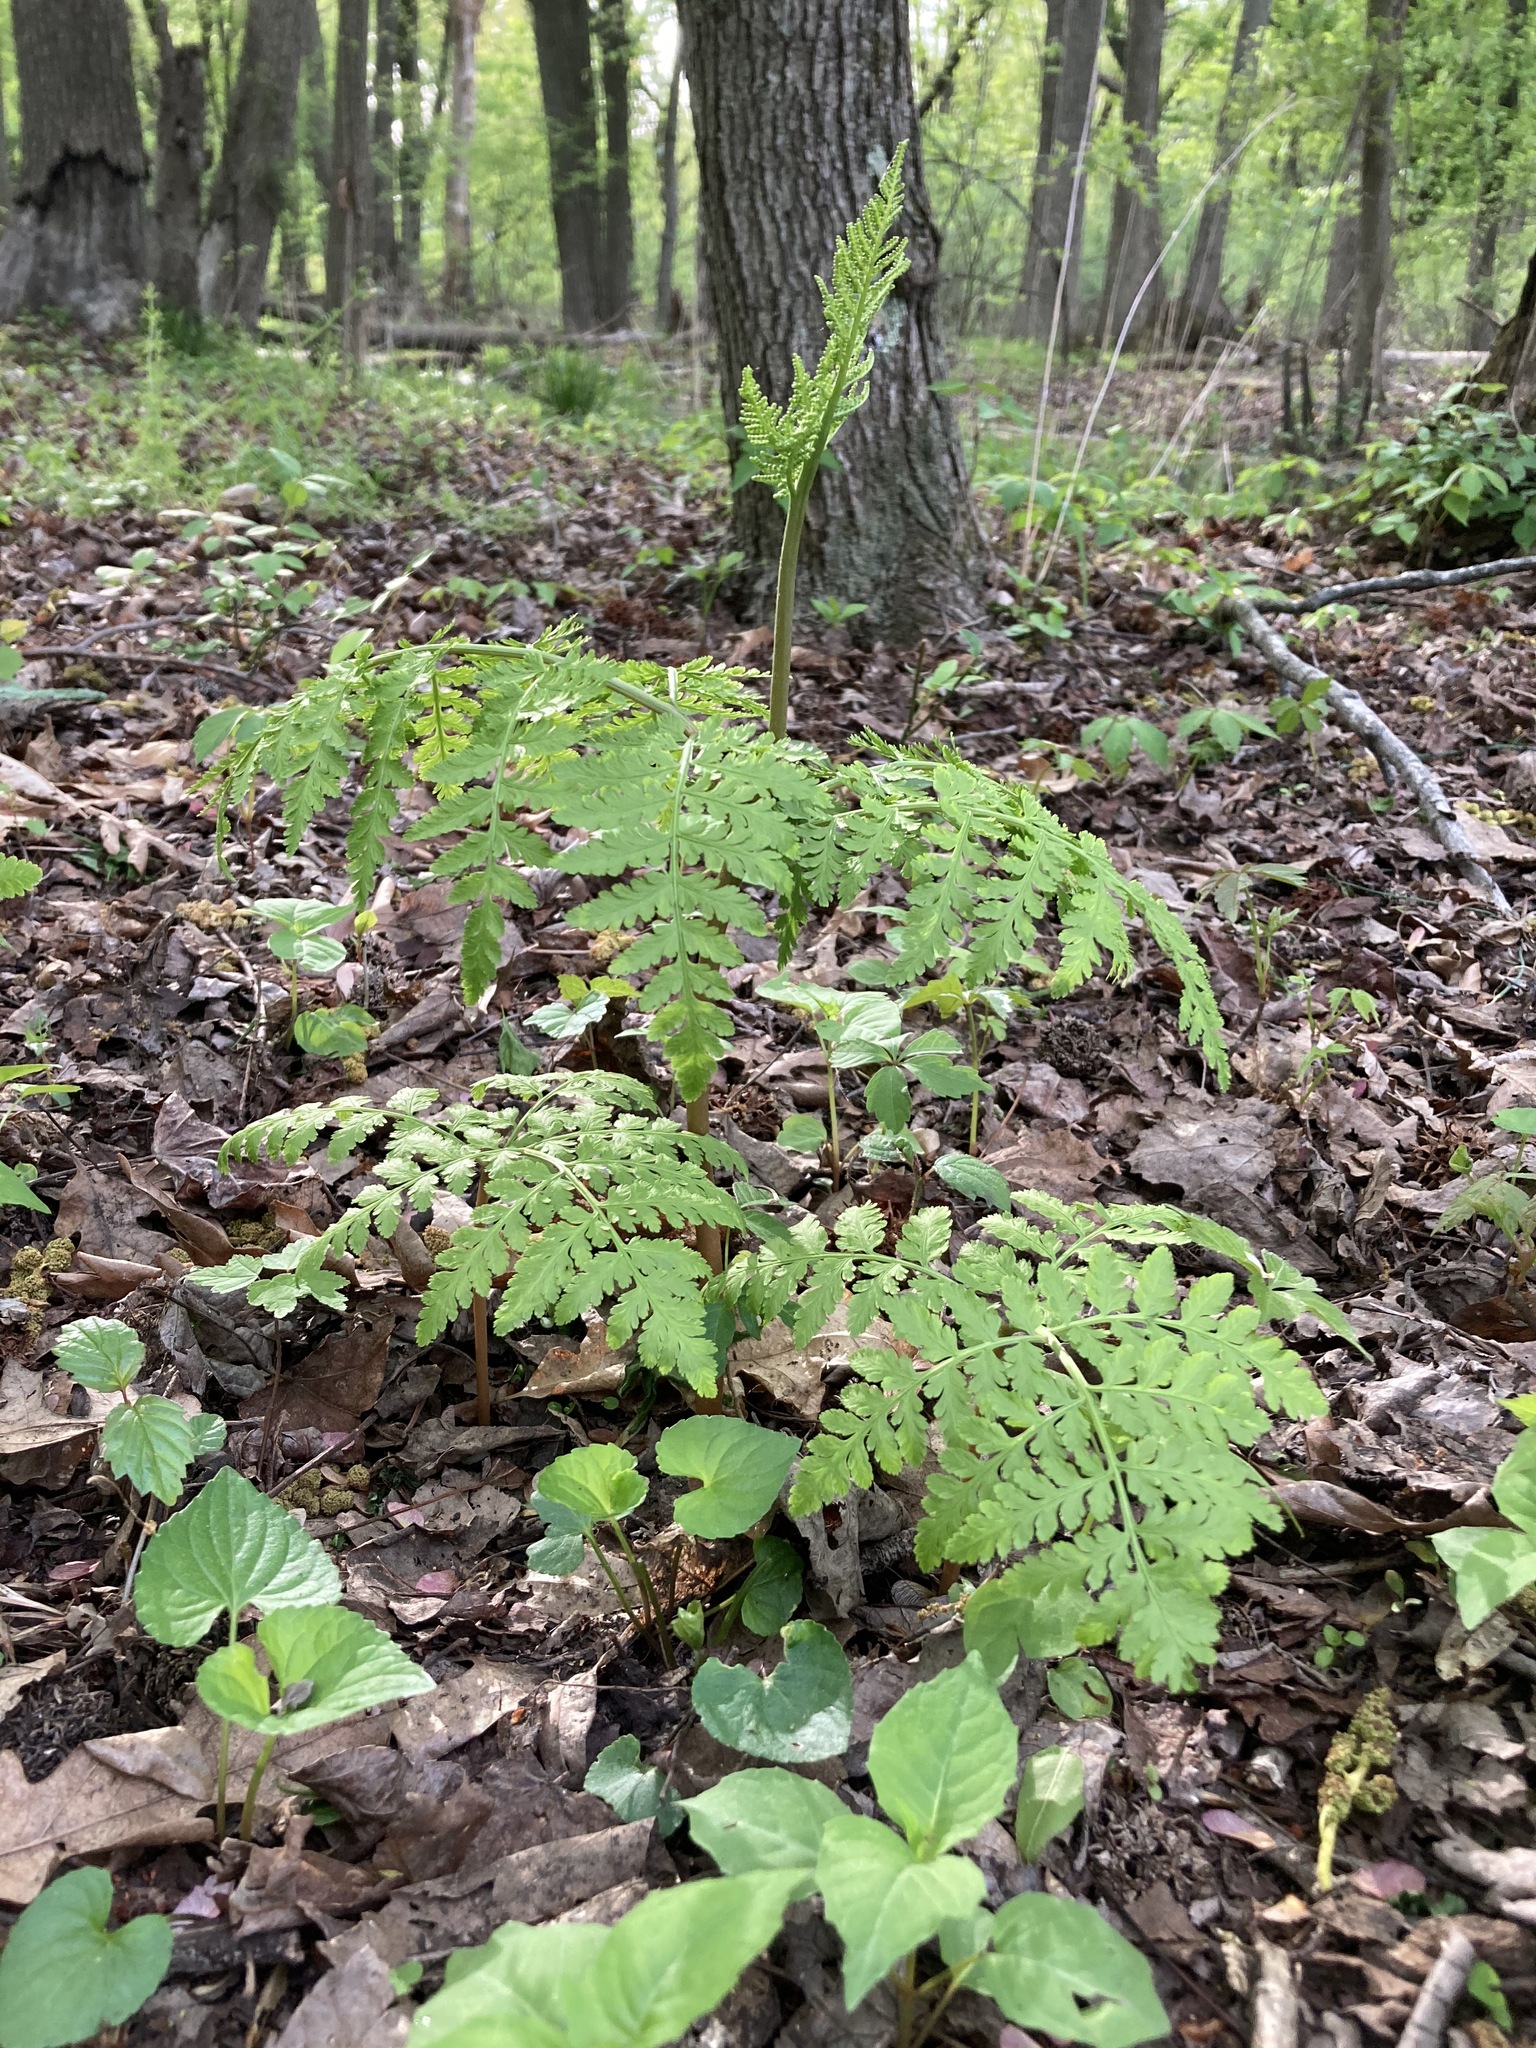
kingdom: Plantae
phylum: Tracheophyta
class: Polypodiopsida
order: Ophioglossales
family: Ophioglossaceae
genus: Botrypus
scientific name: Botrypus virginianus
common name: Common grapefern
